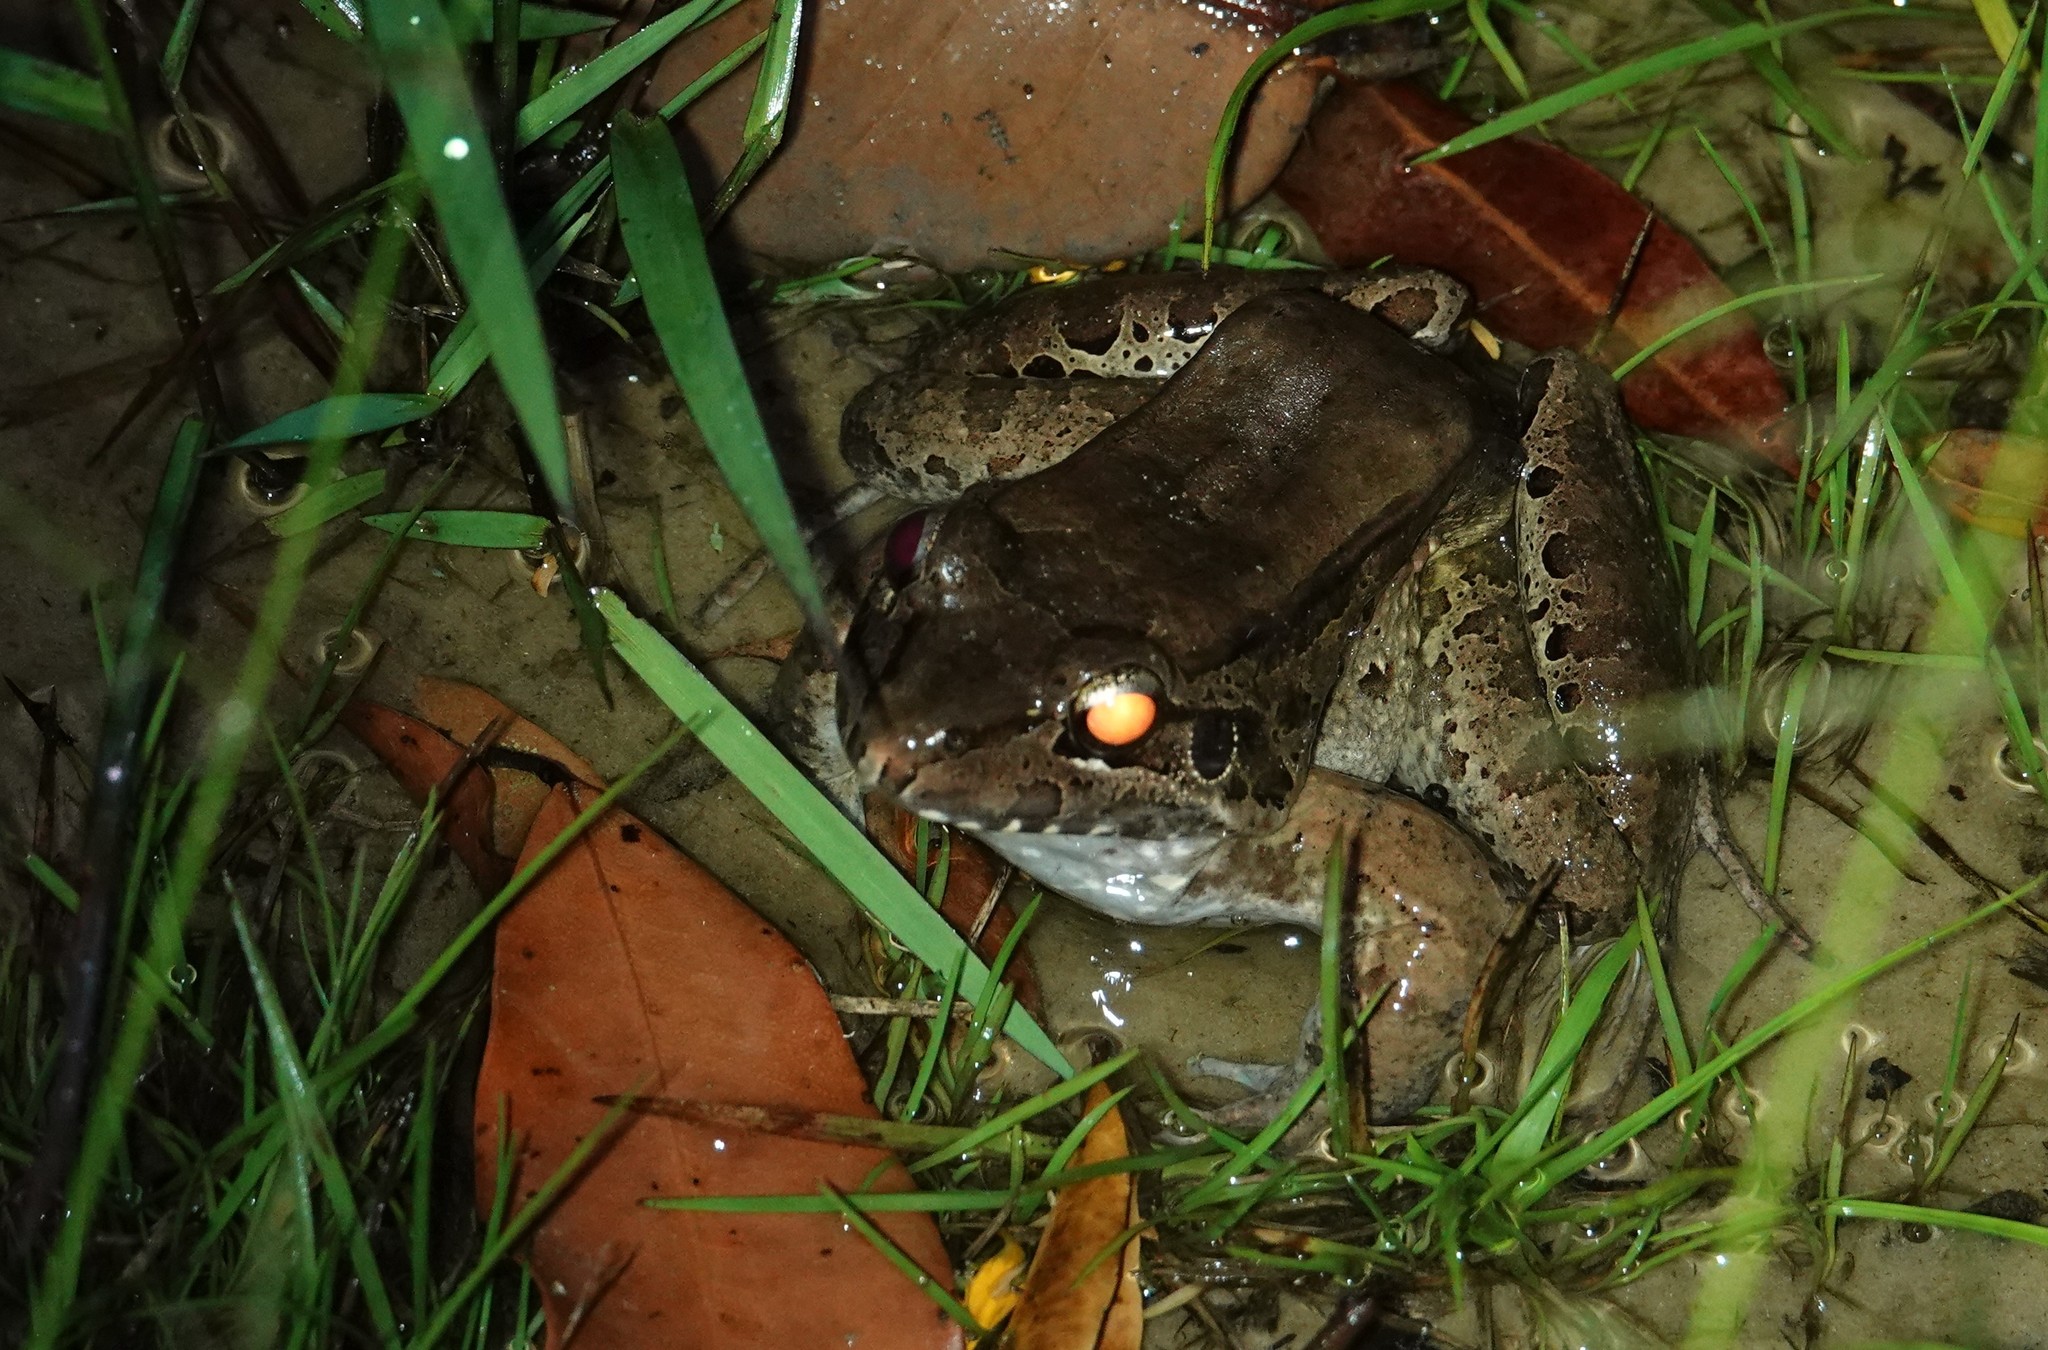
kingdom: Animalia
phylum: Chordata
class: Amphibia
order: Anura
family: Leptodactylidae
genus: Leptodactylus
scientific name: Leptodactylus guianensis
